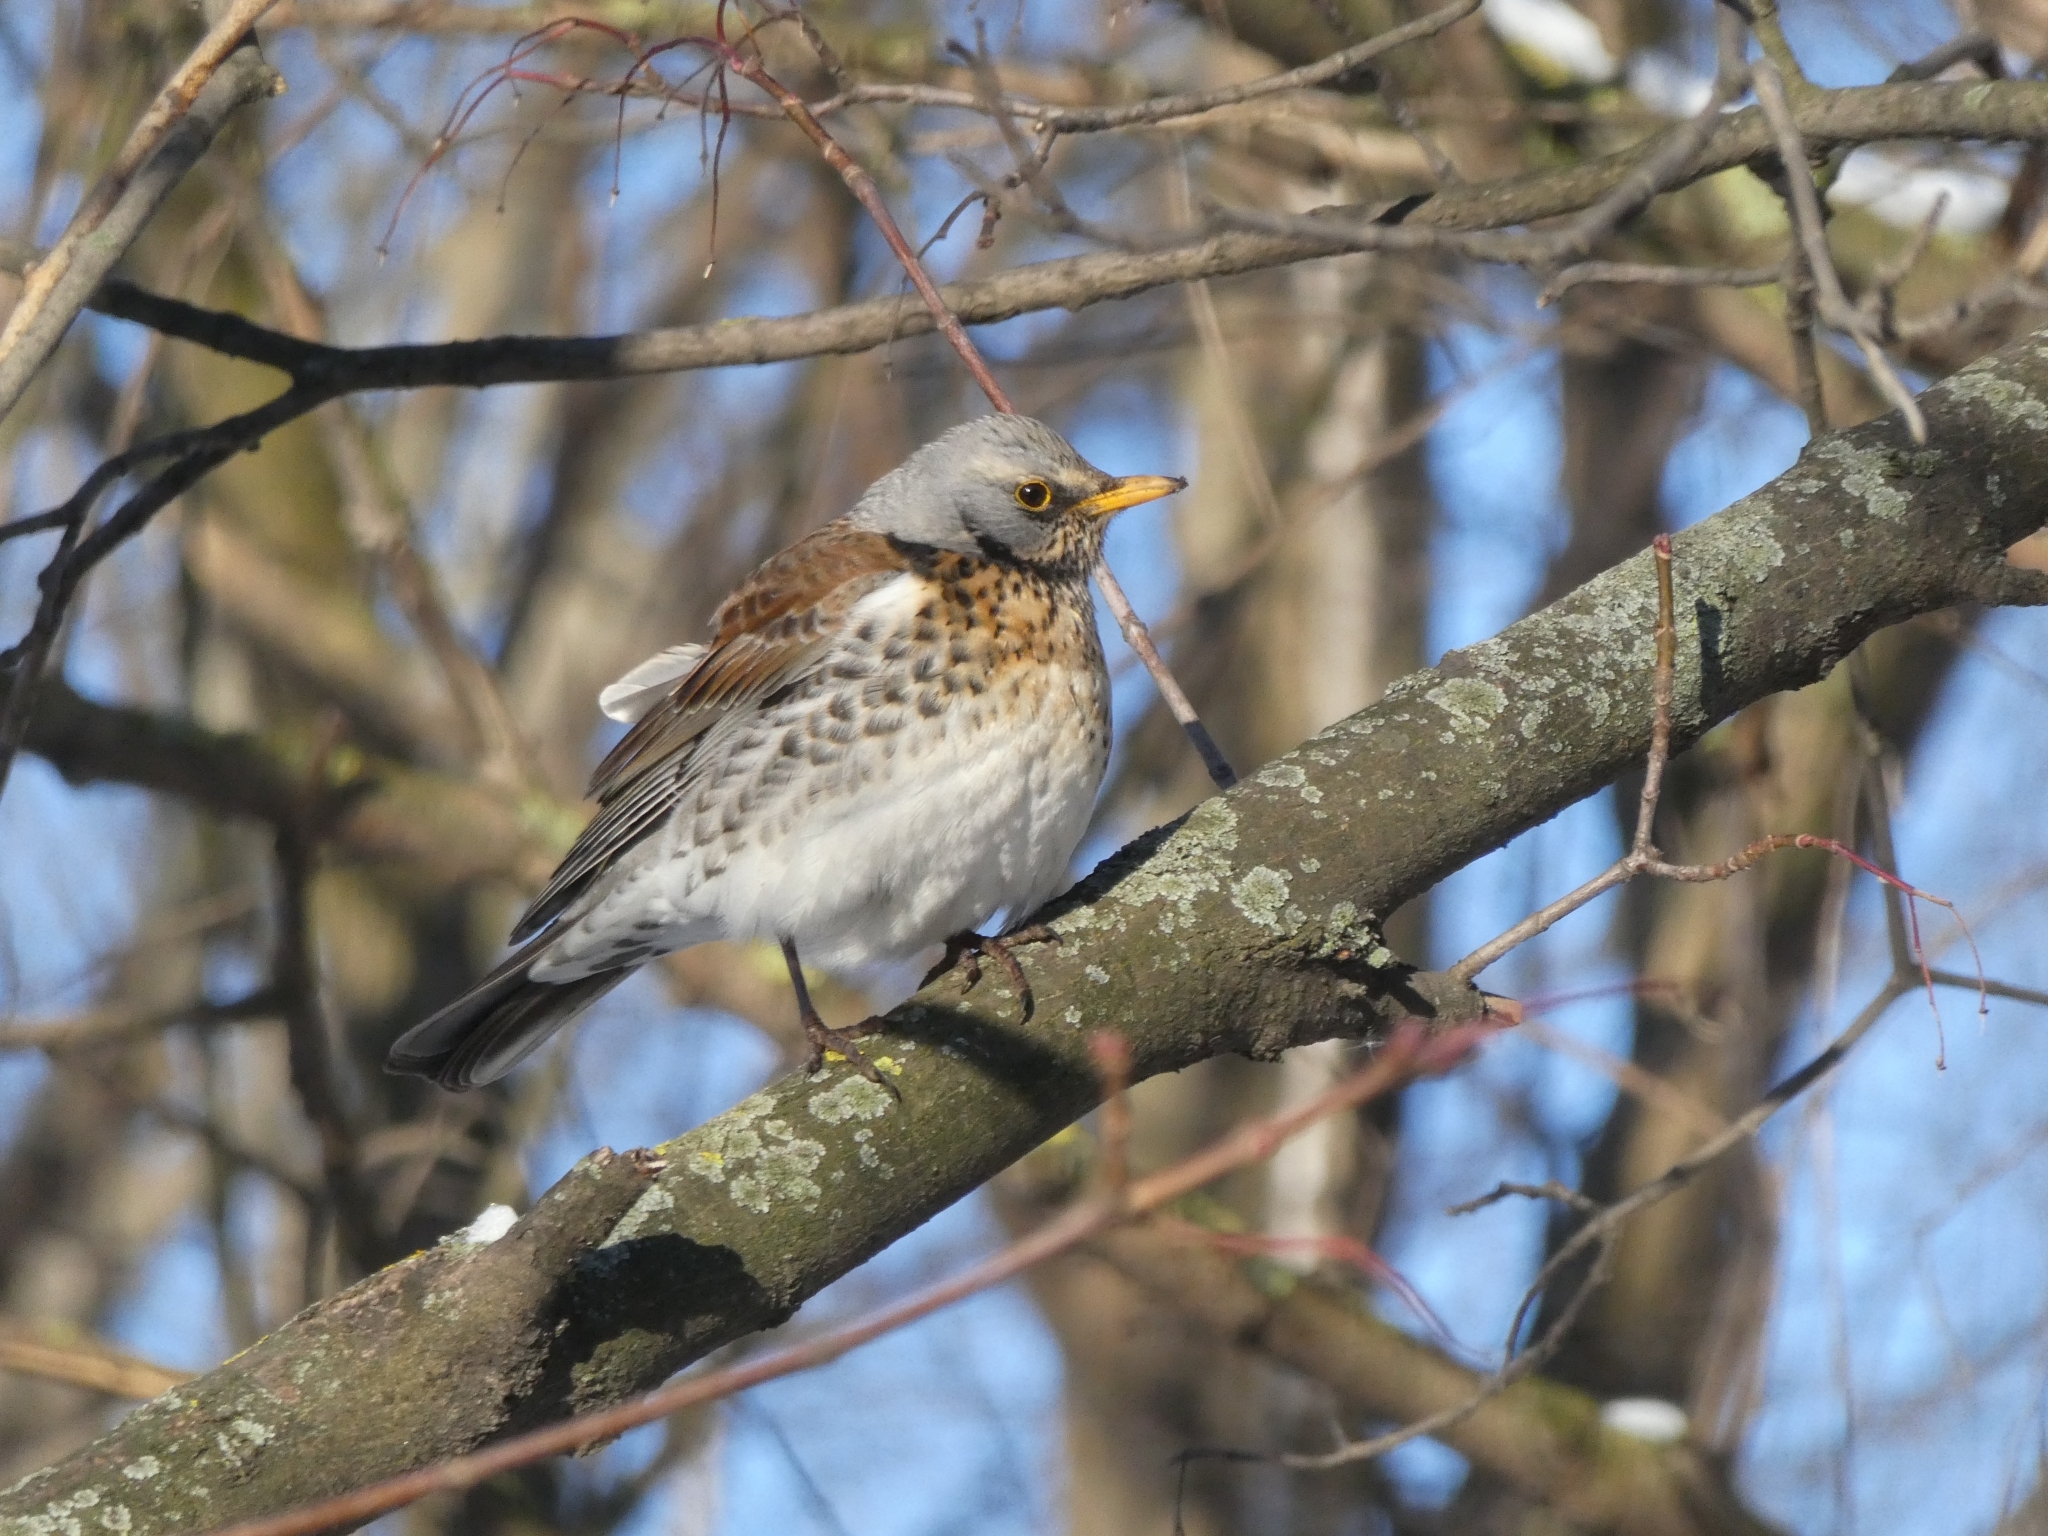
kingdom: Animalia
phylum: Chordata
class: Aves
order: Passeriformes
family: Turdidae
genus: Turdus
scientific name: Turdus pilaris
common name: Fieldfare
